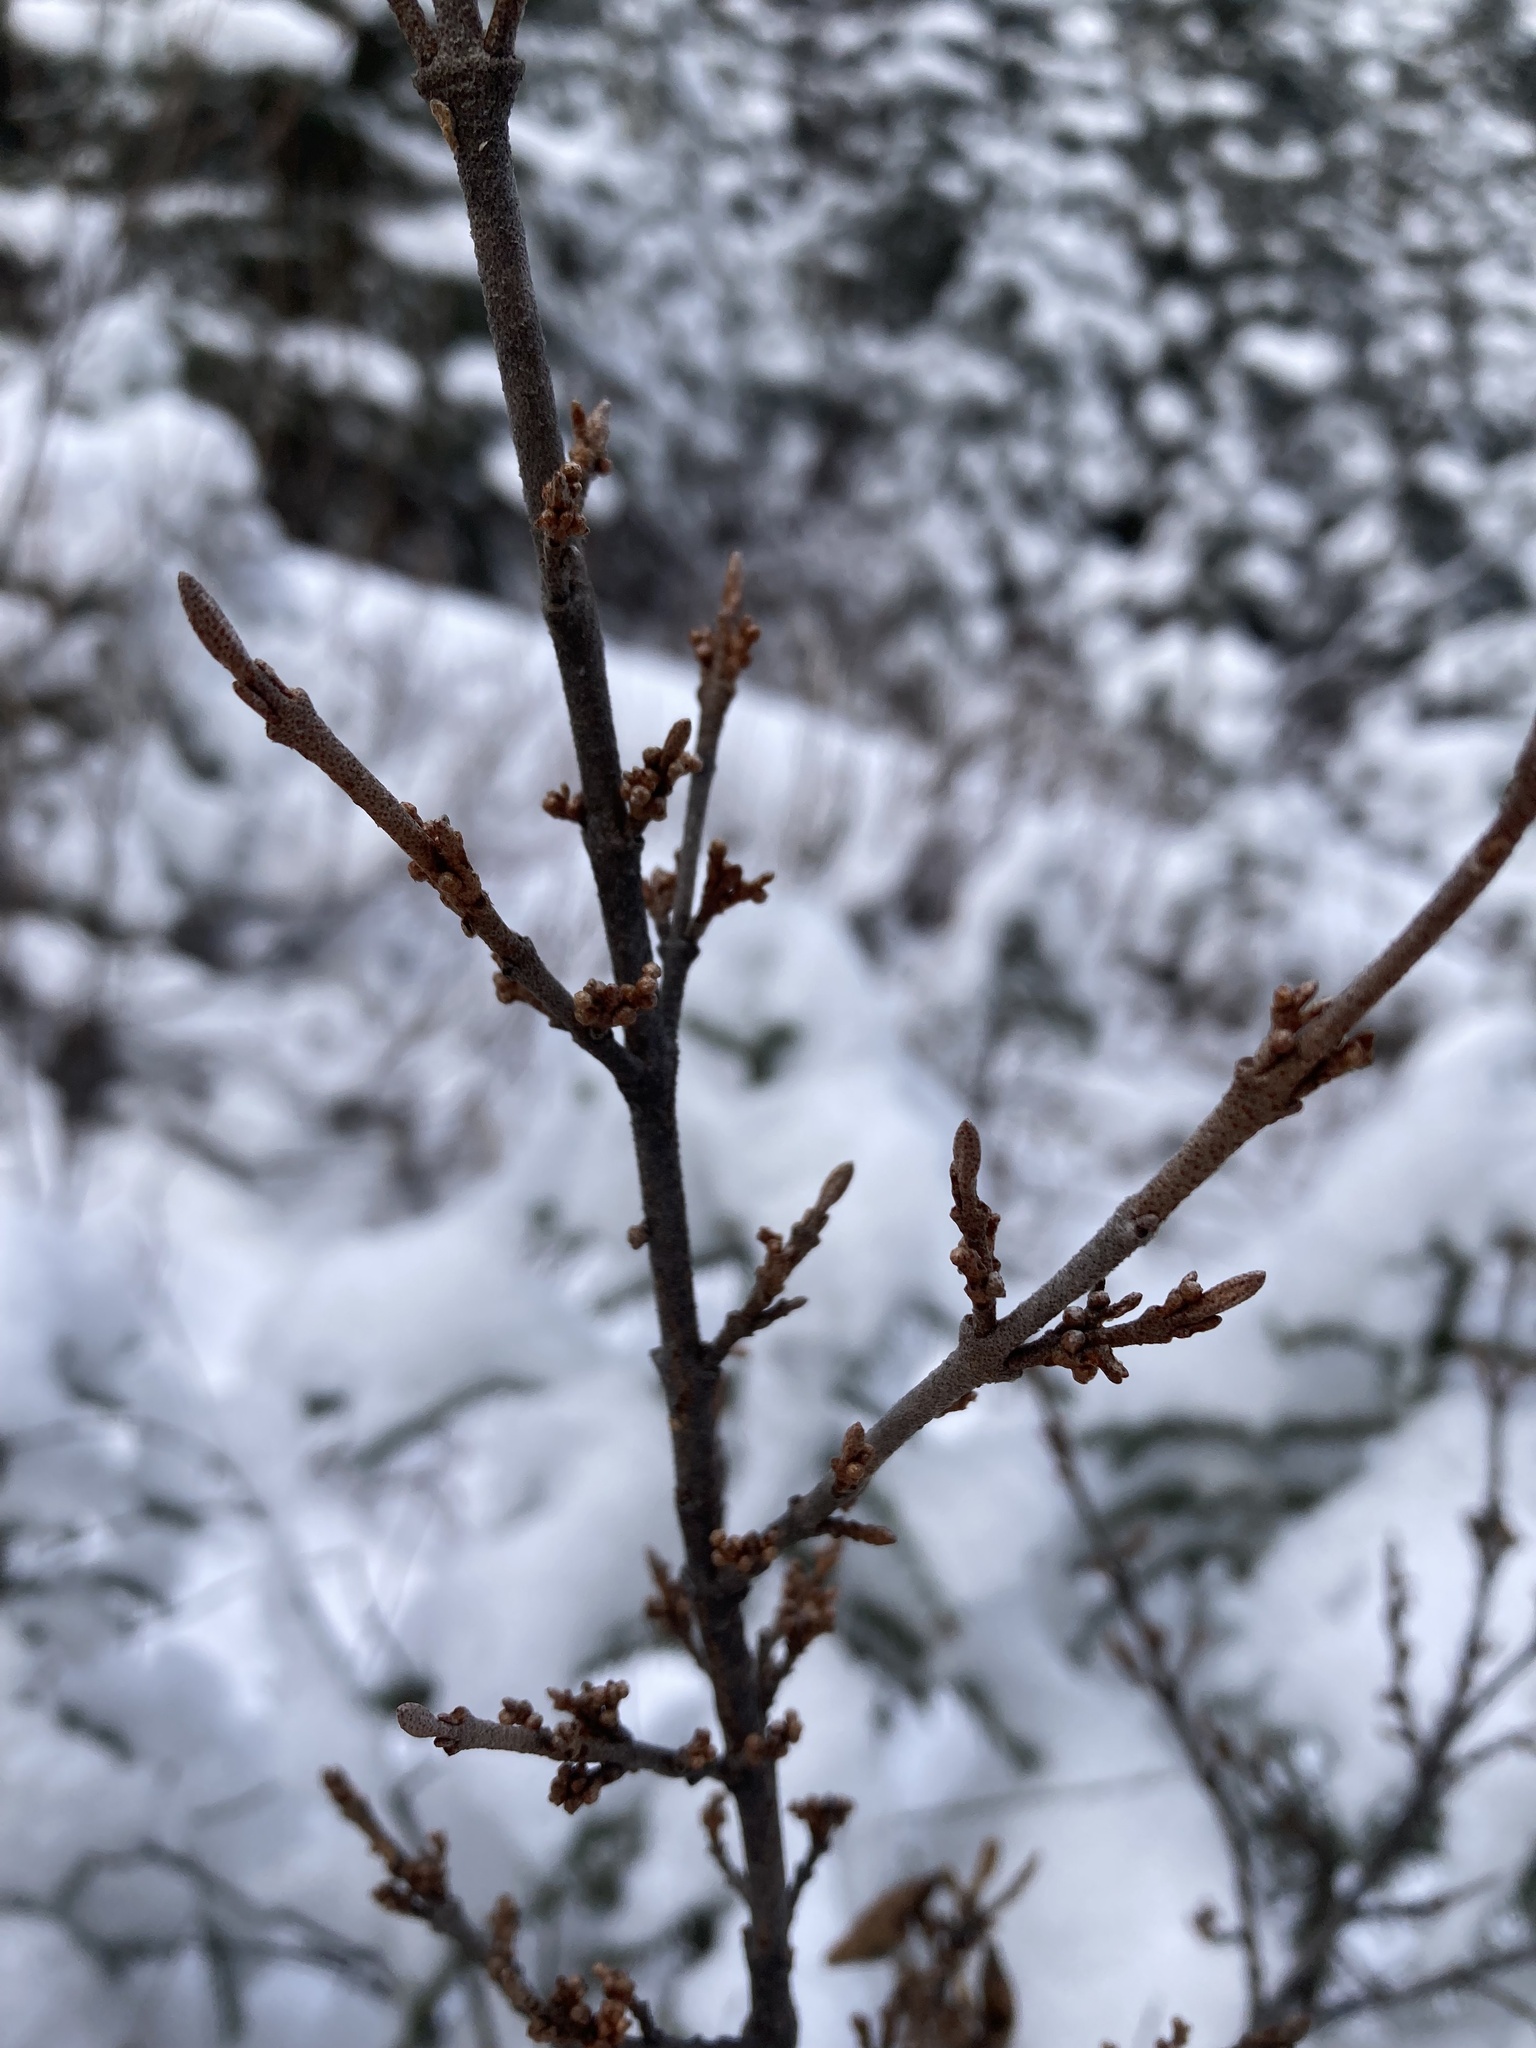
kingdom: Plantae
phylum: Tracheophyta
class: Magnoliopsida
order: Rosales
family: Elaeagnaceae
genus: Shepherdia
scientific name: Shepherdia canadensis
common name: Soapberry
